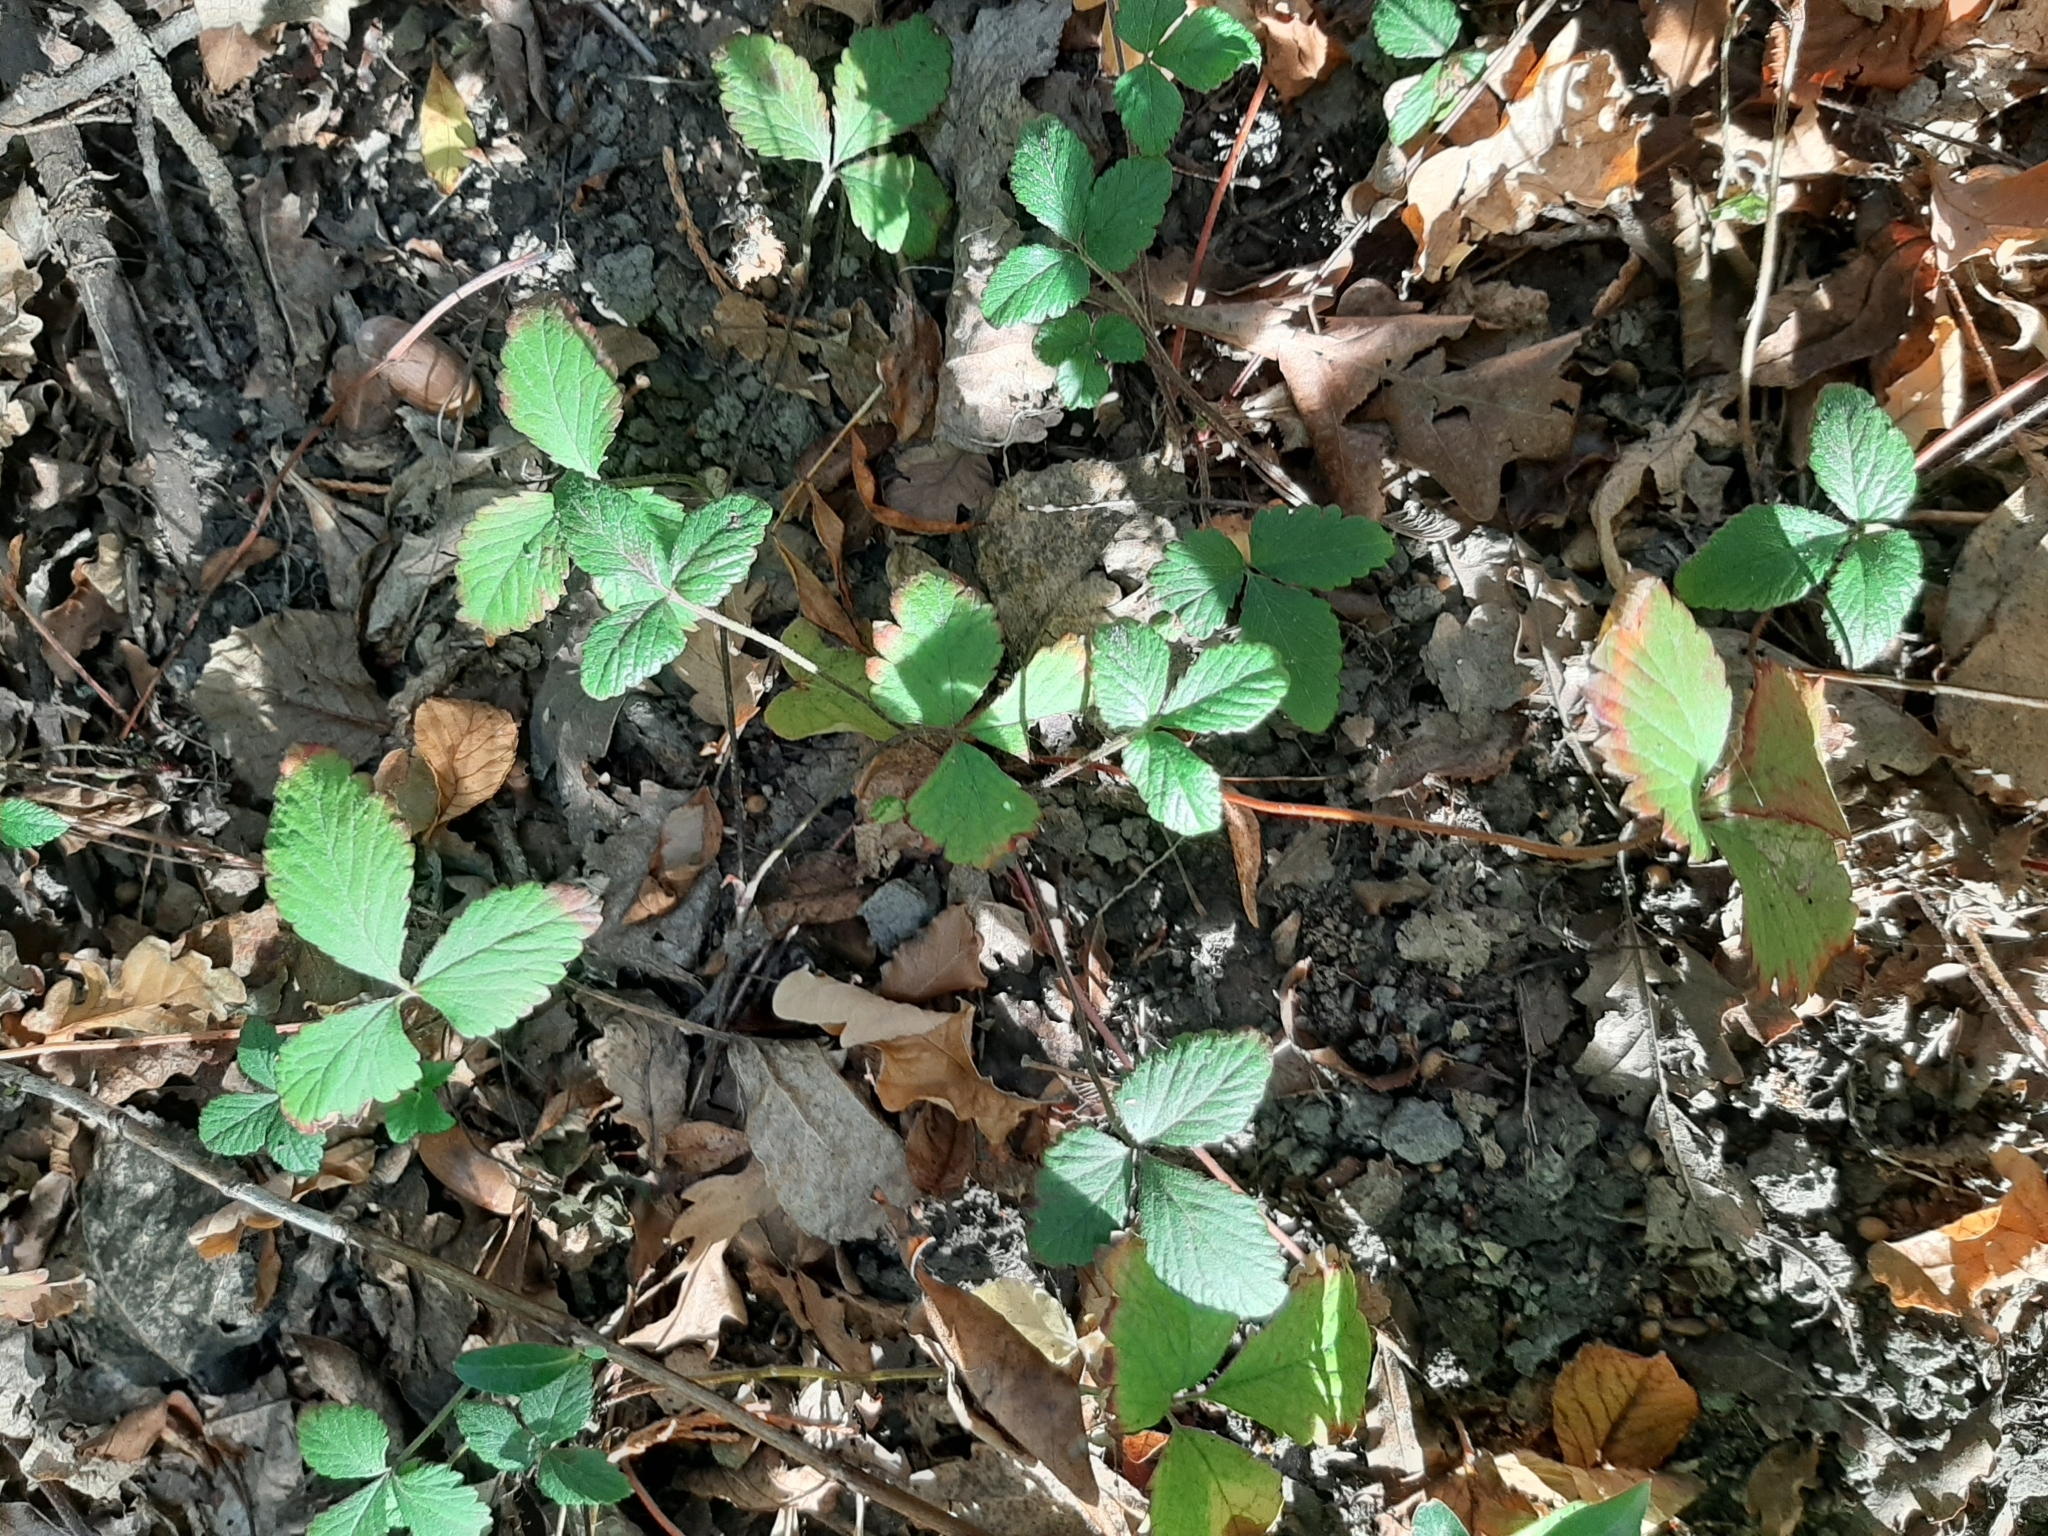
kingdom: Plantae
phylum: Tracheophyta
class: Magnoliopsida
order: Rosales
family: Rosaceae
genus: Fragaria
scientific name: Fragaria vesca
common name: Wild strawberry
